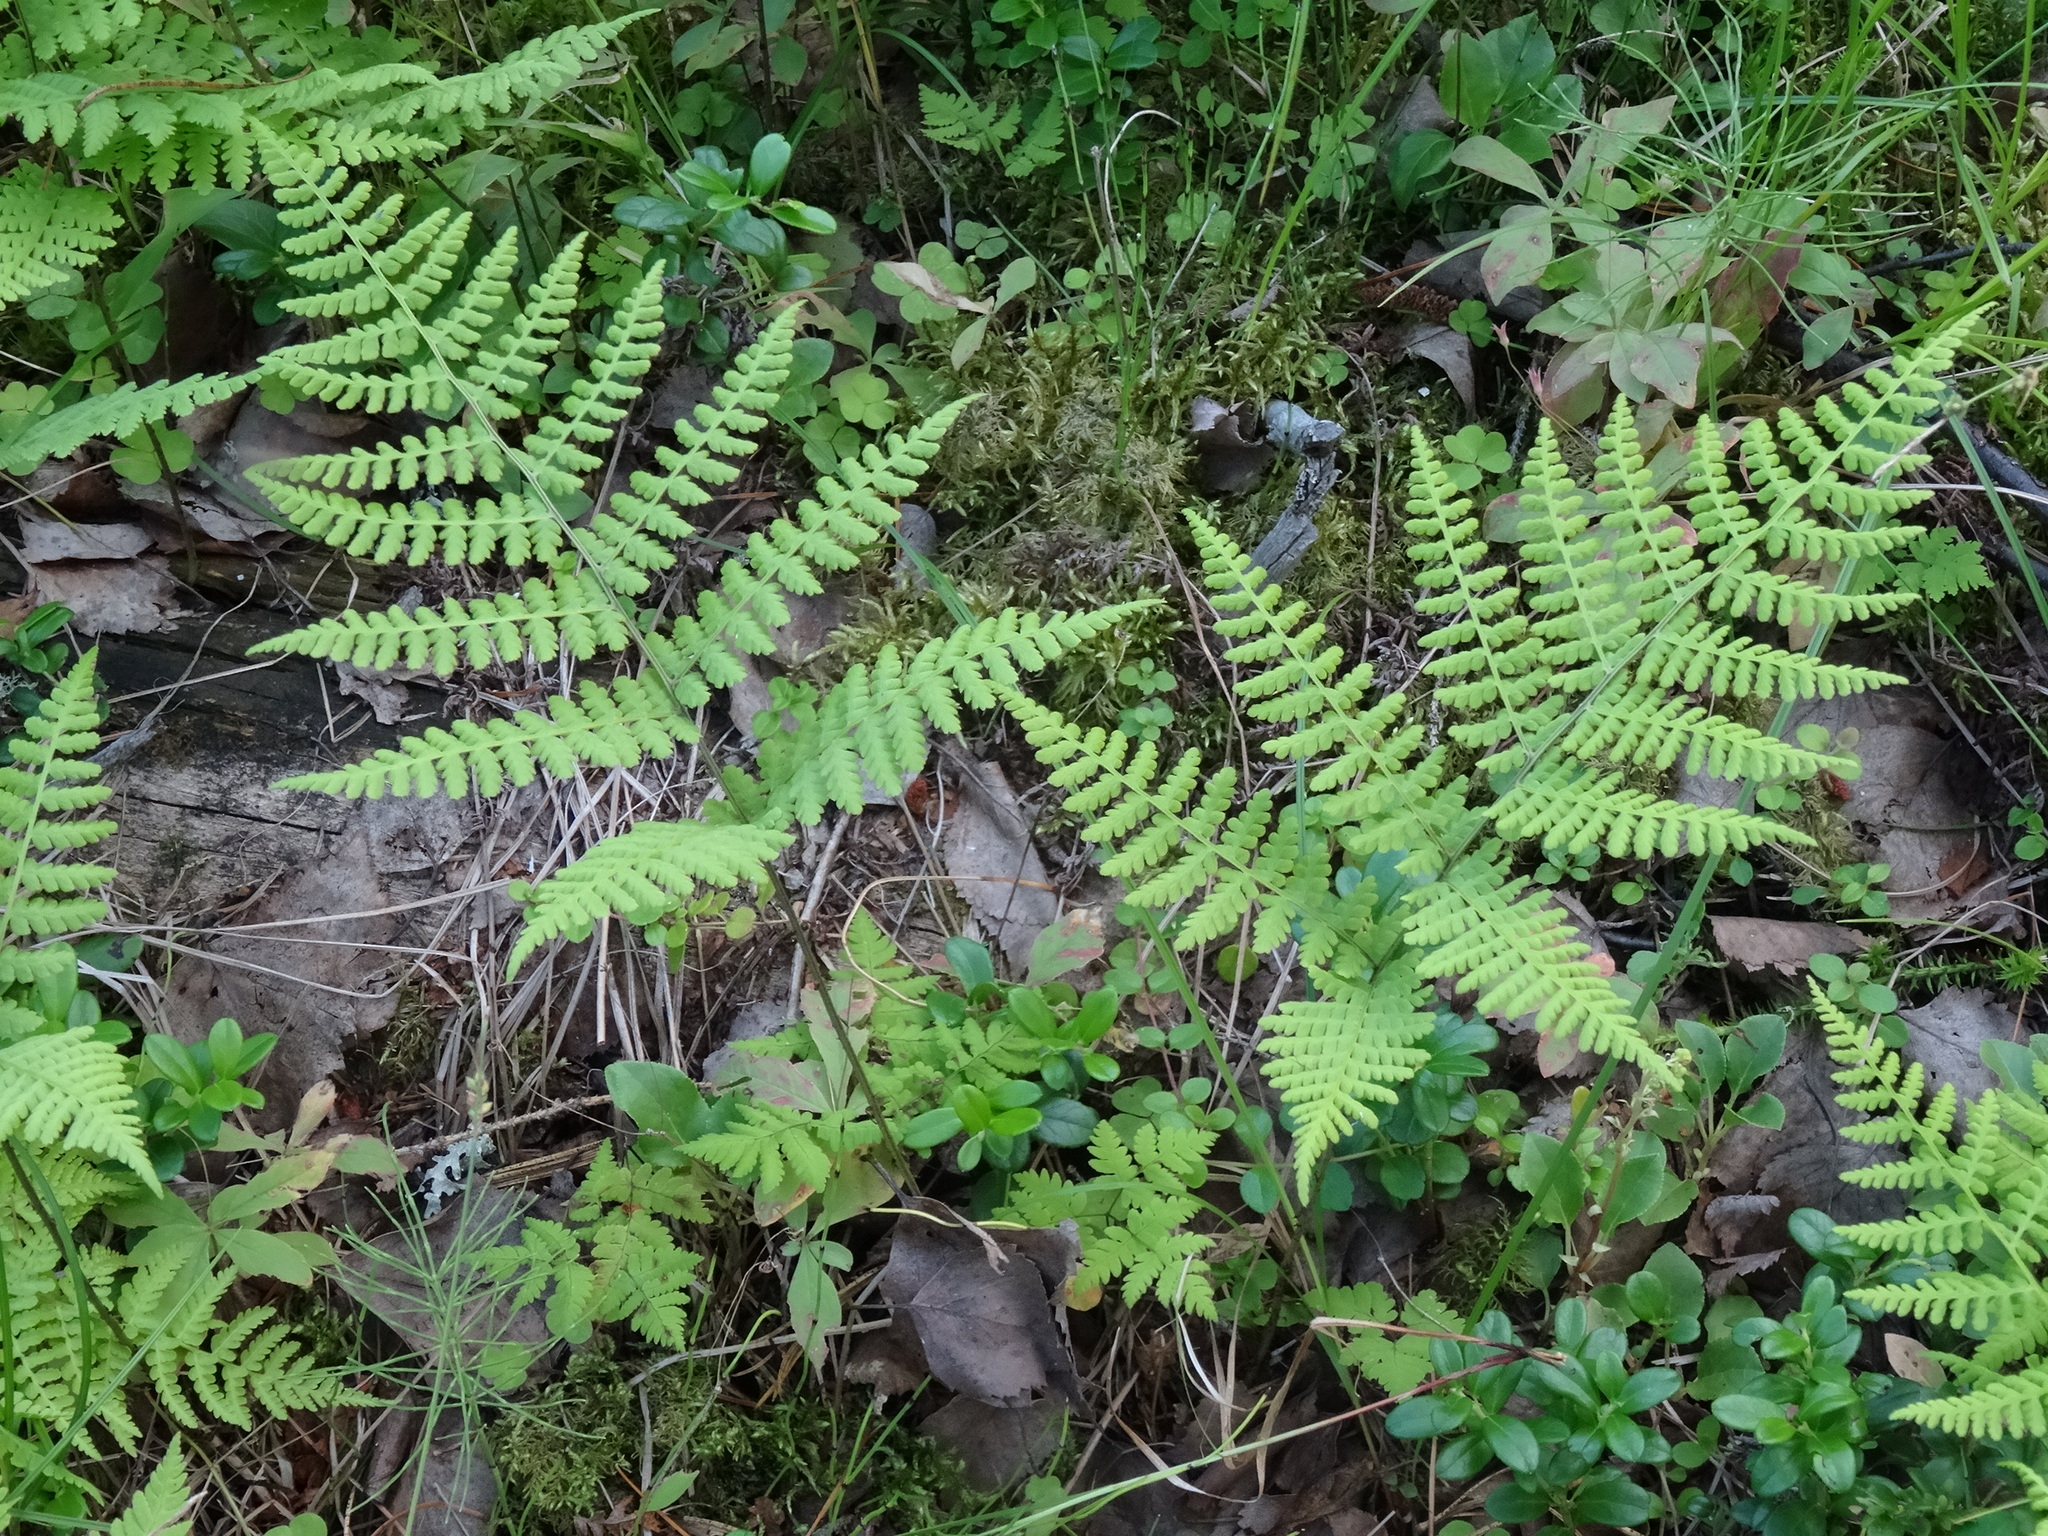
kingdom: Plantae
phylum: Tracheophyta
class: Polypodiopsida
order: Polypodiales
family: Athyriaceae
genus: Diplazium
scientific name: Diplazium sibiricum
